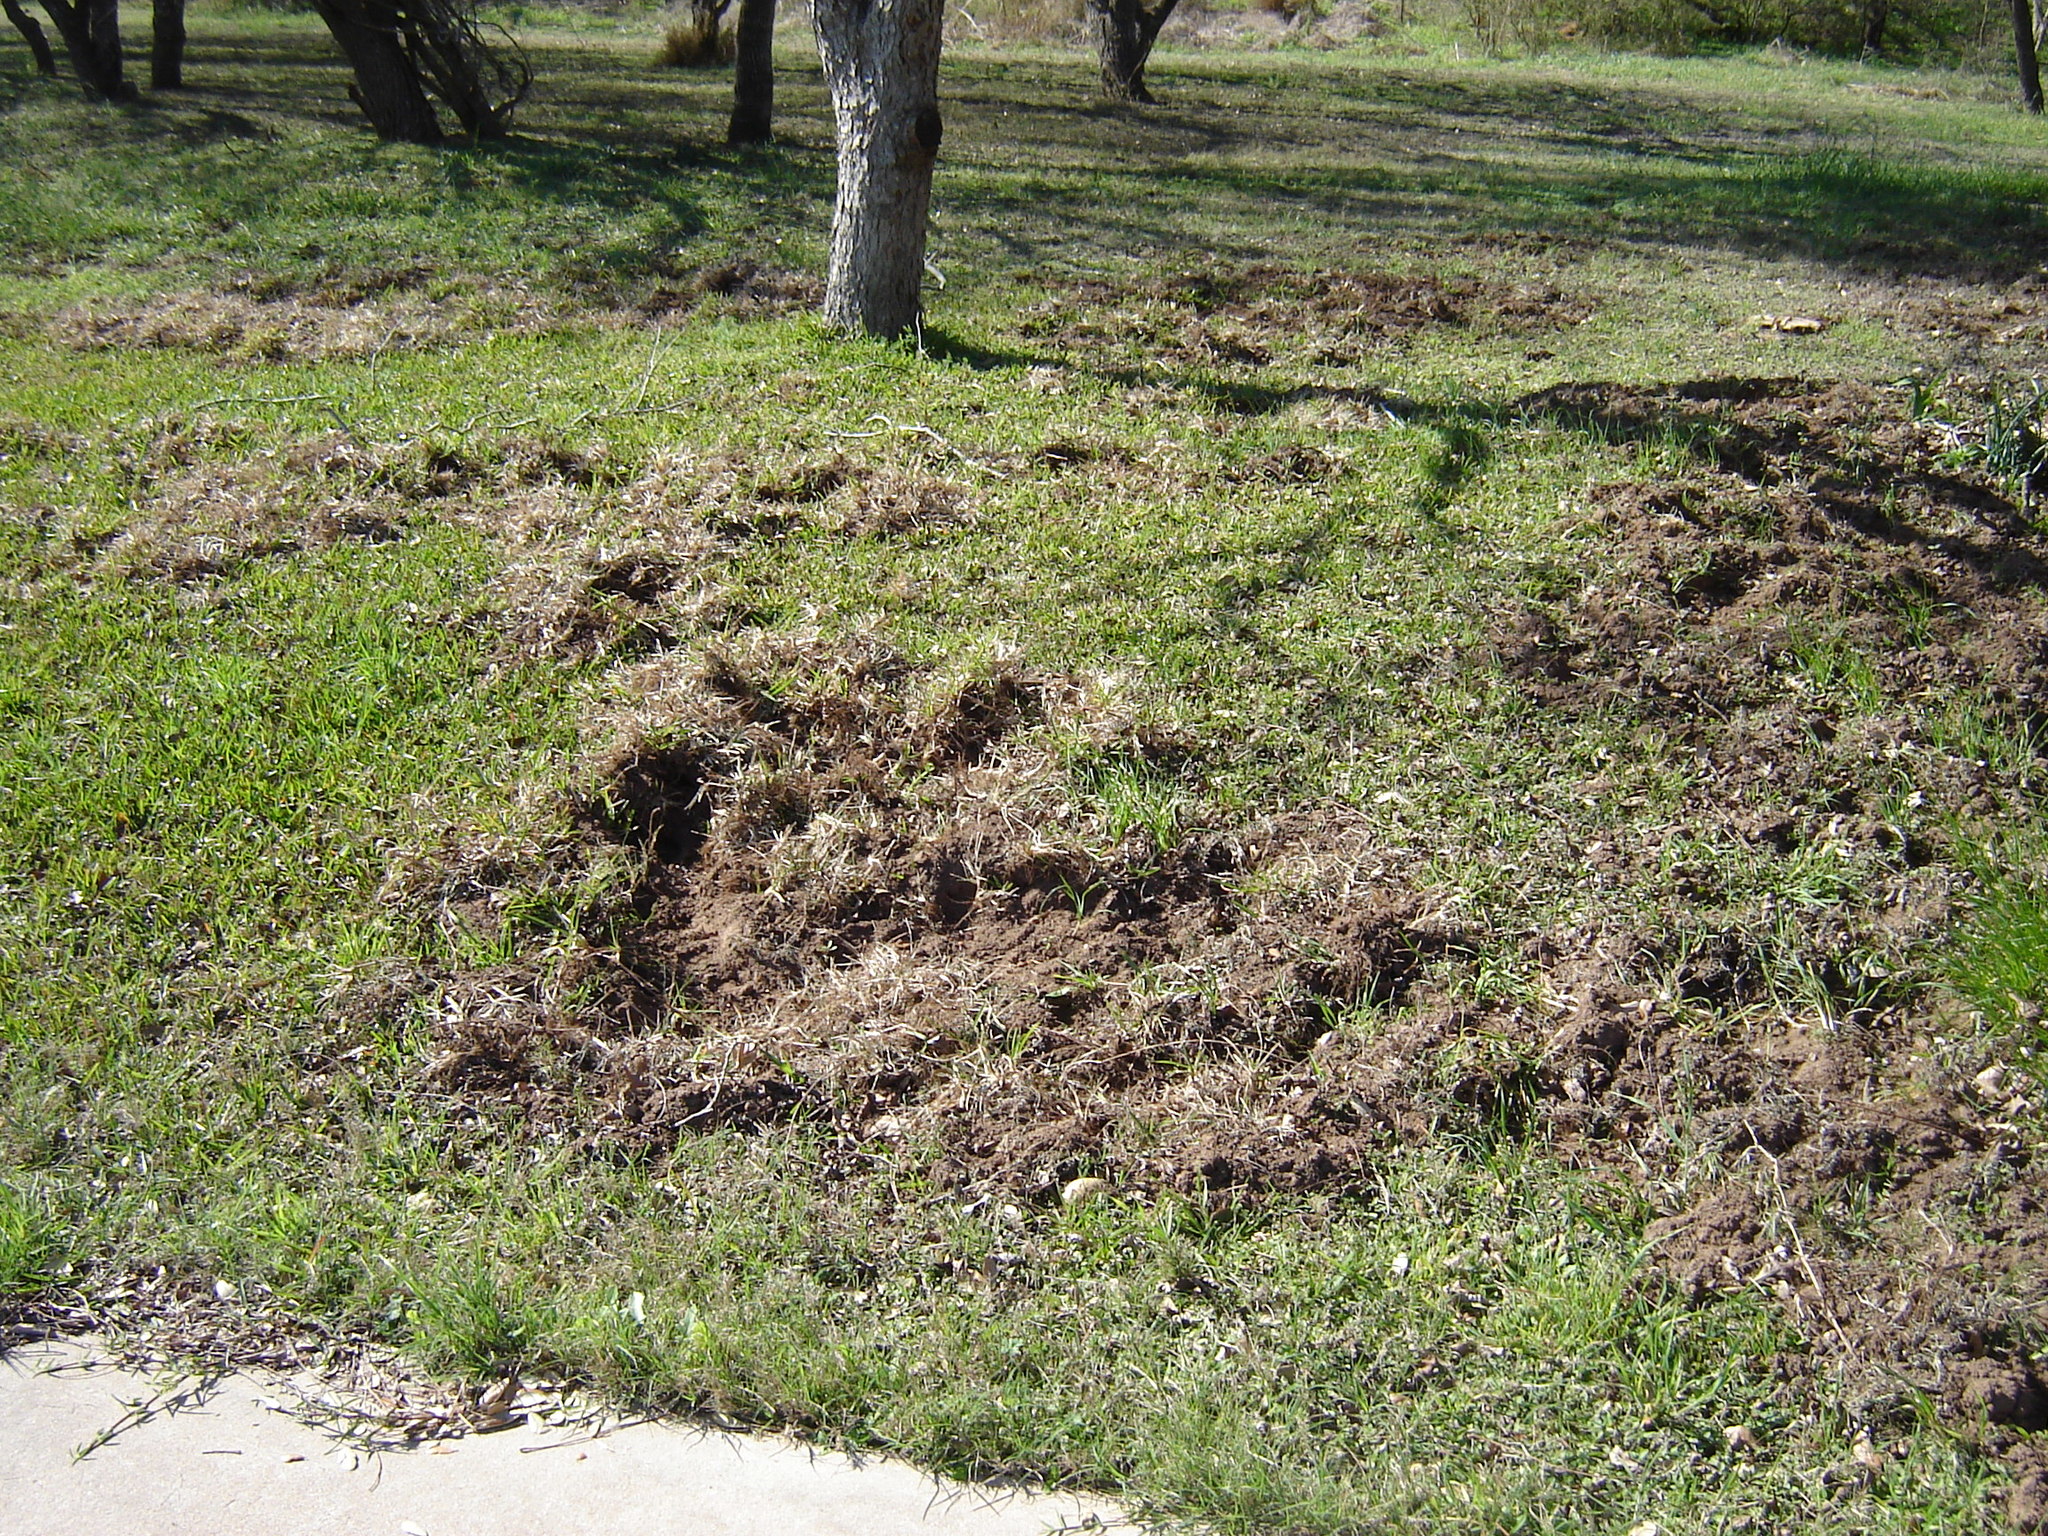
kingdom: Animalia
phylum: Chordata
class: Mammalia
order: Artiodactyla
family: Suidae
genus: Sus
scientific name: Sus scrofa
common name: Wild boar
